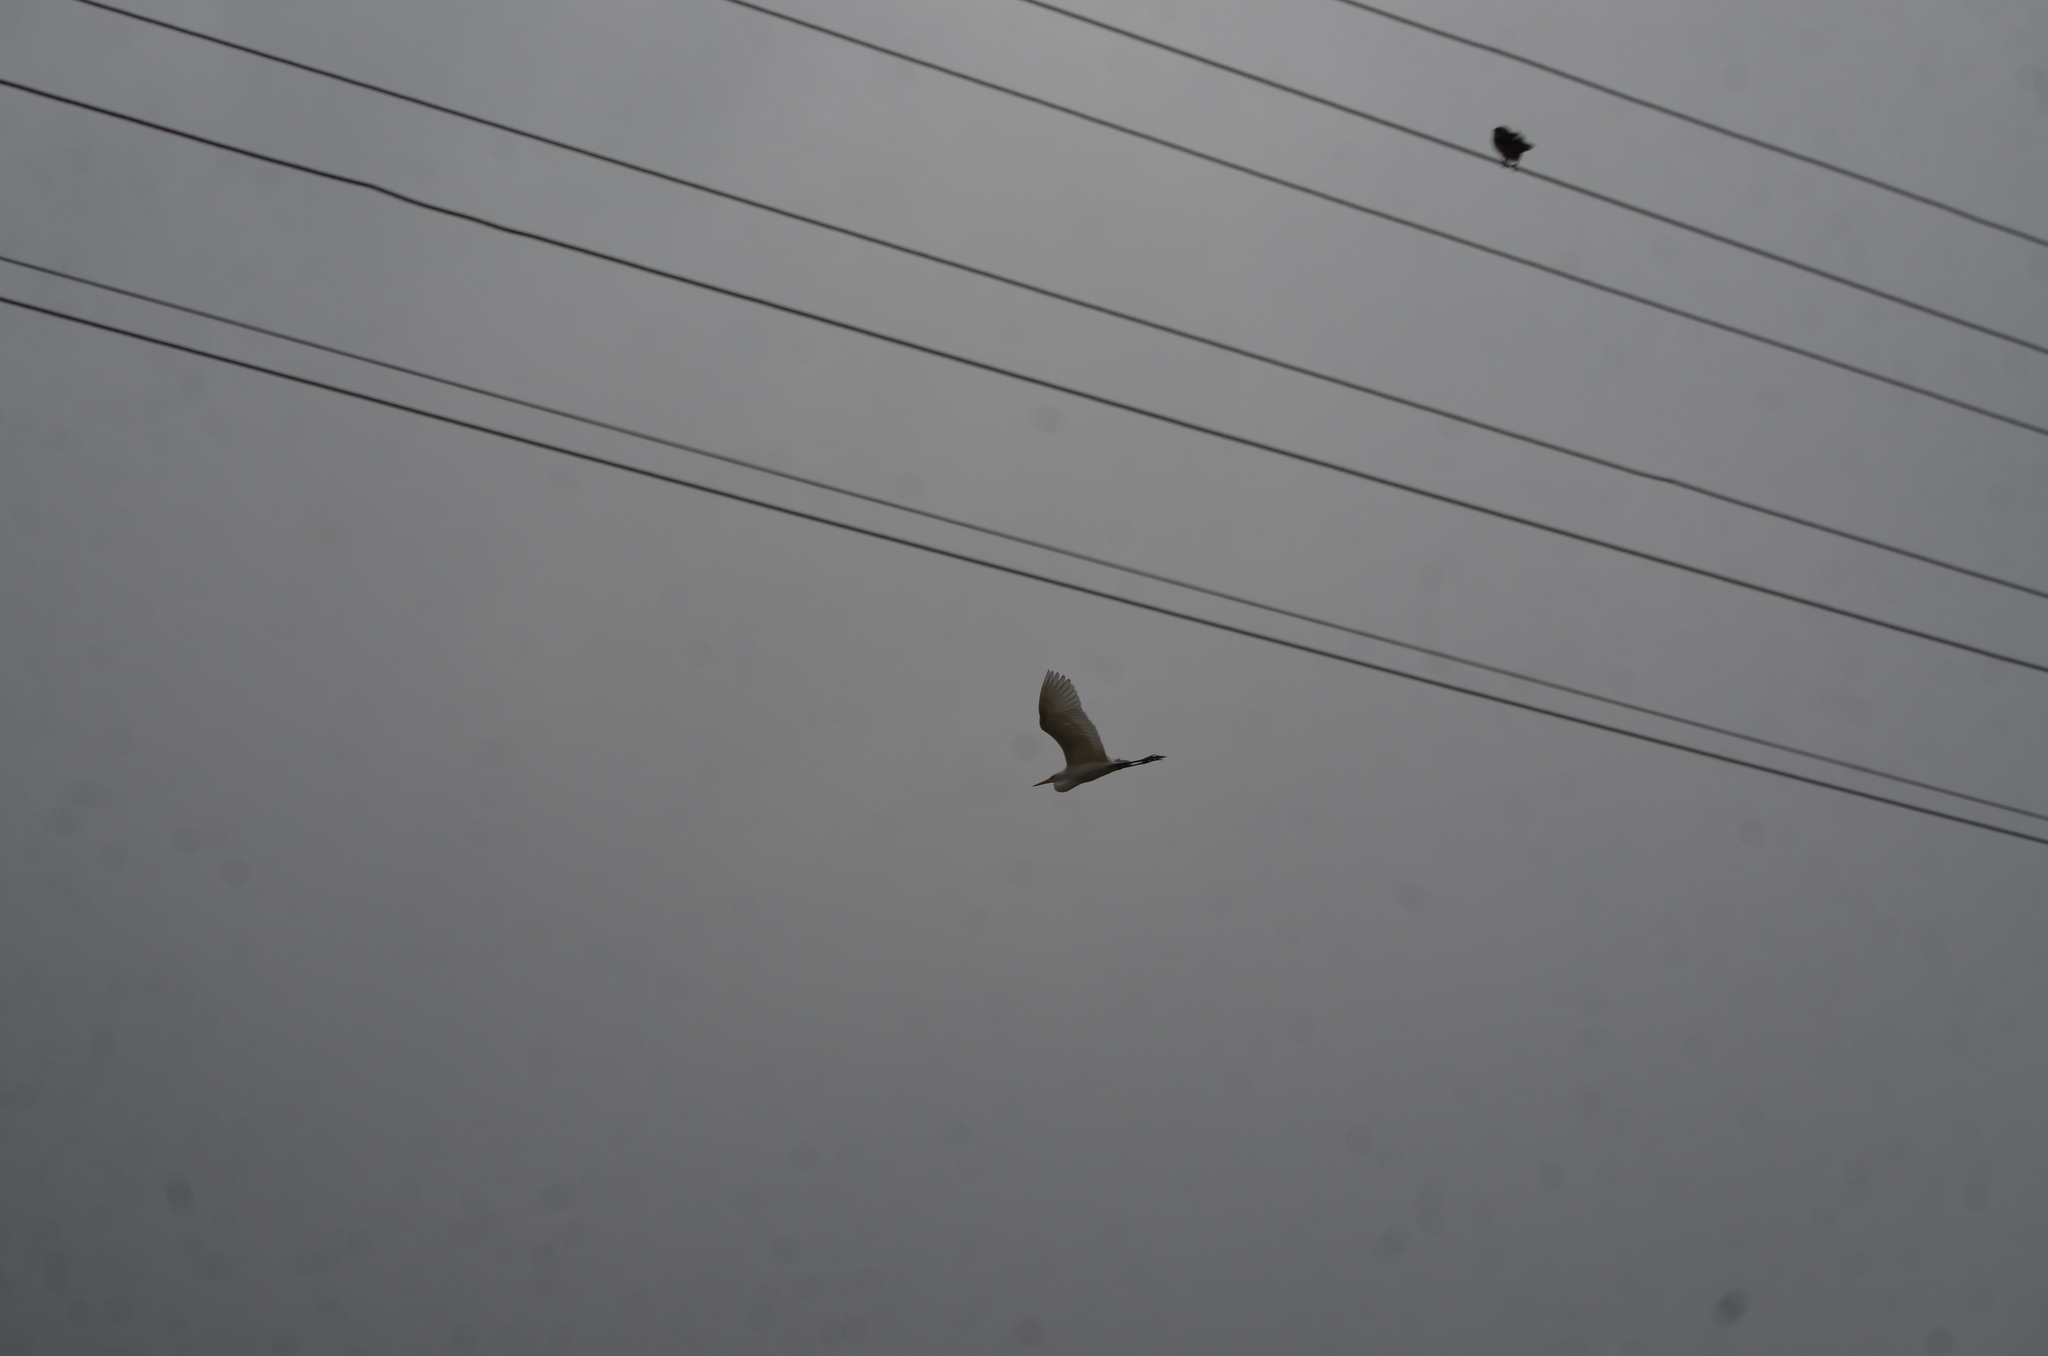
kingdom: Animalia
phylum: Chordata
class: Aves
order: Pelecaniformes
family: Ardeidae
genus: Bubulcus
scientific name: Bubulcus coromandus
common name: Eastern cattle egret
